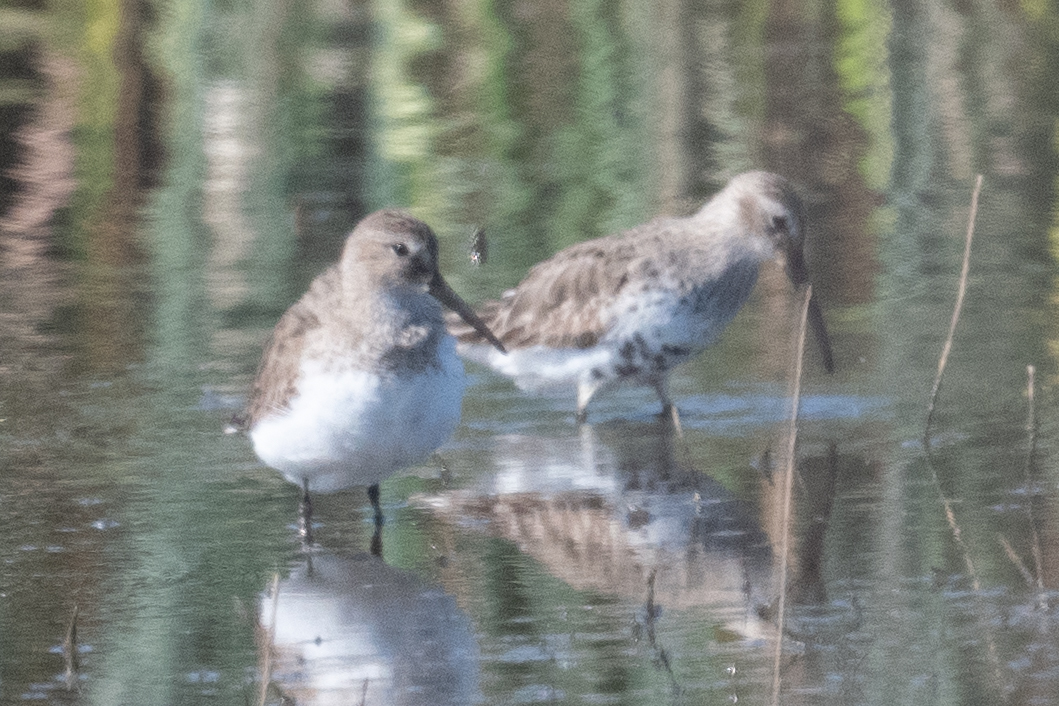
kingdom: Animalia
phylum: Chordata
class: Aves
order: Charadriiformes
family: Scolopacidae
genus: Calidris
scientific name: Calidris alpina
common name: Dunlin
